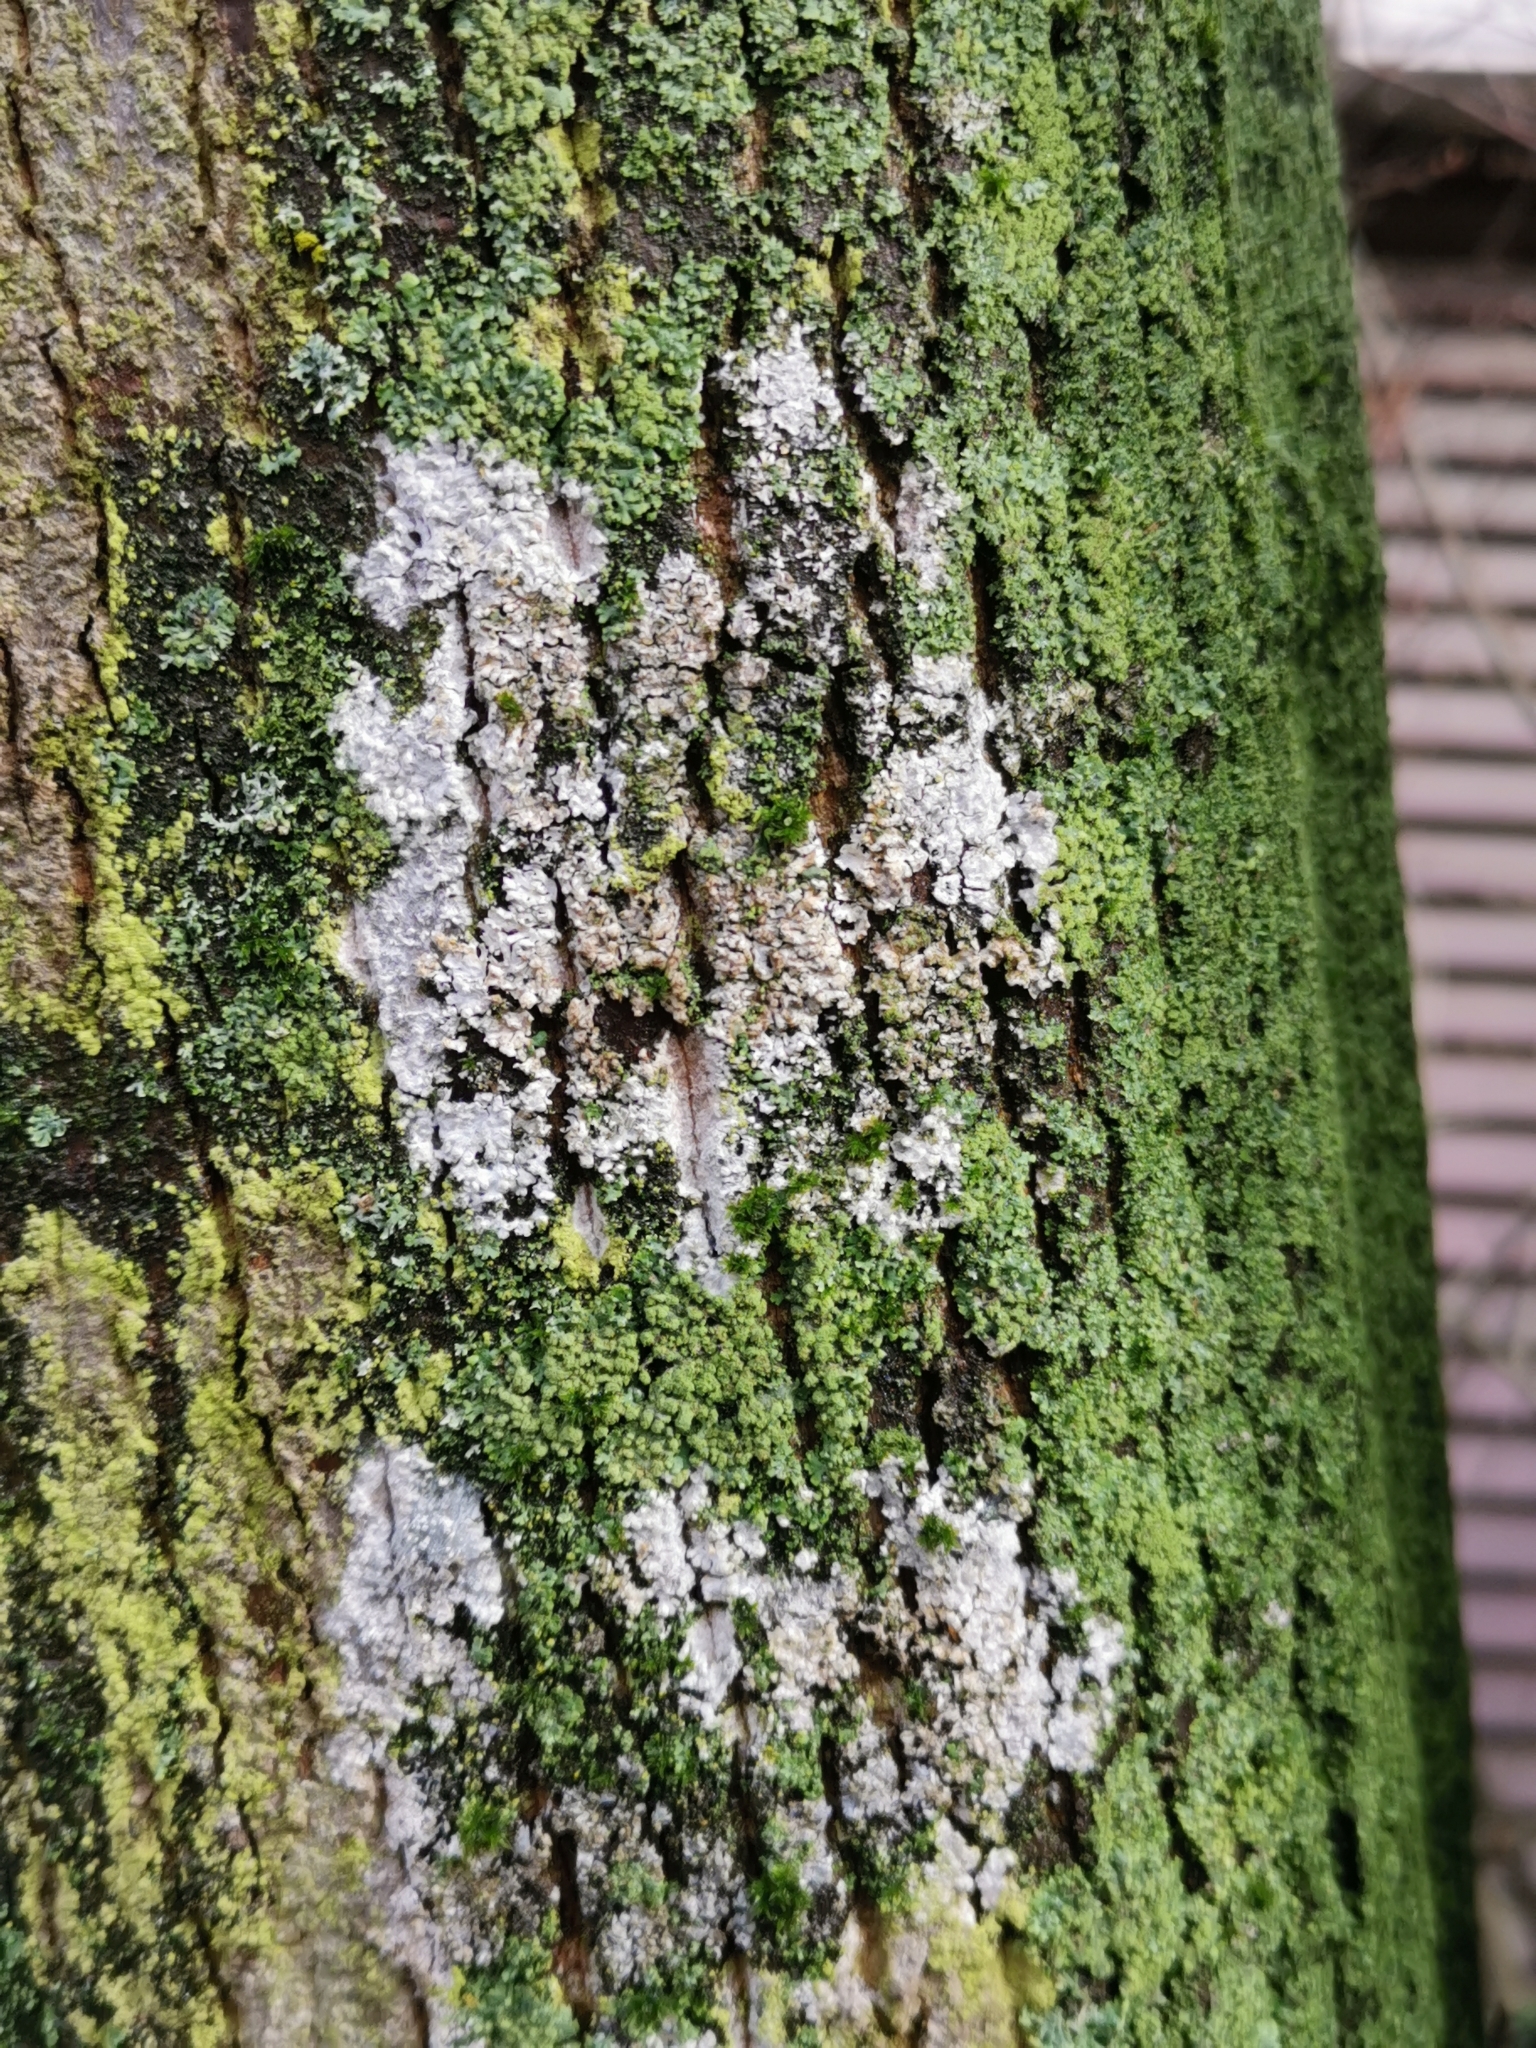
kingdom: Fungi
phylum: Basidiomycota
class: Agaricomycetes
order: Atheliales
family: Atheliaceae
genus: Athelia
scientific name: Athelia arachnoidea
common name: Candelabra duster
